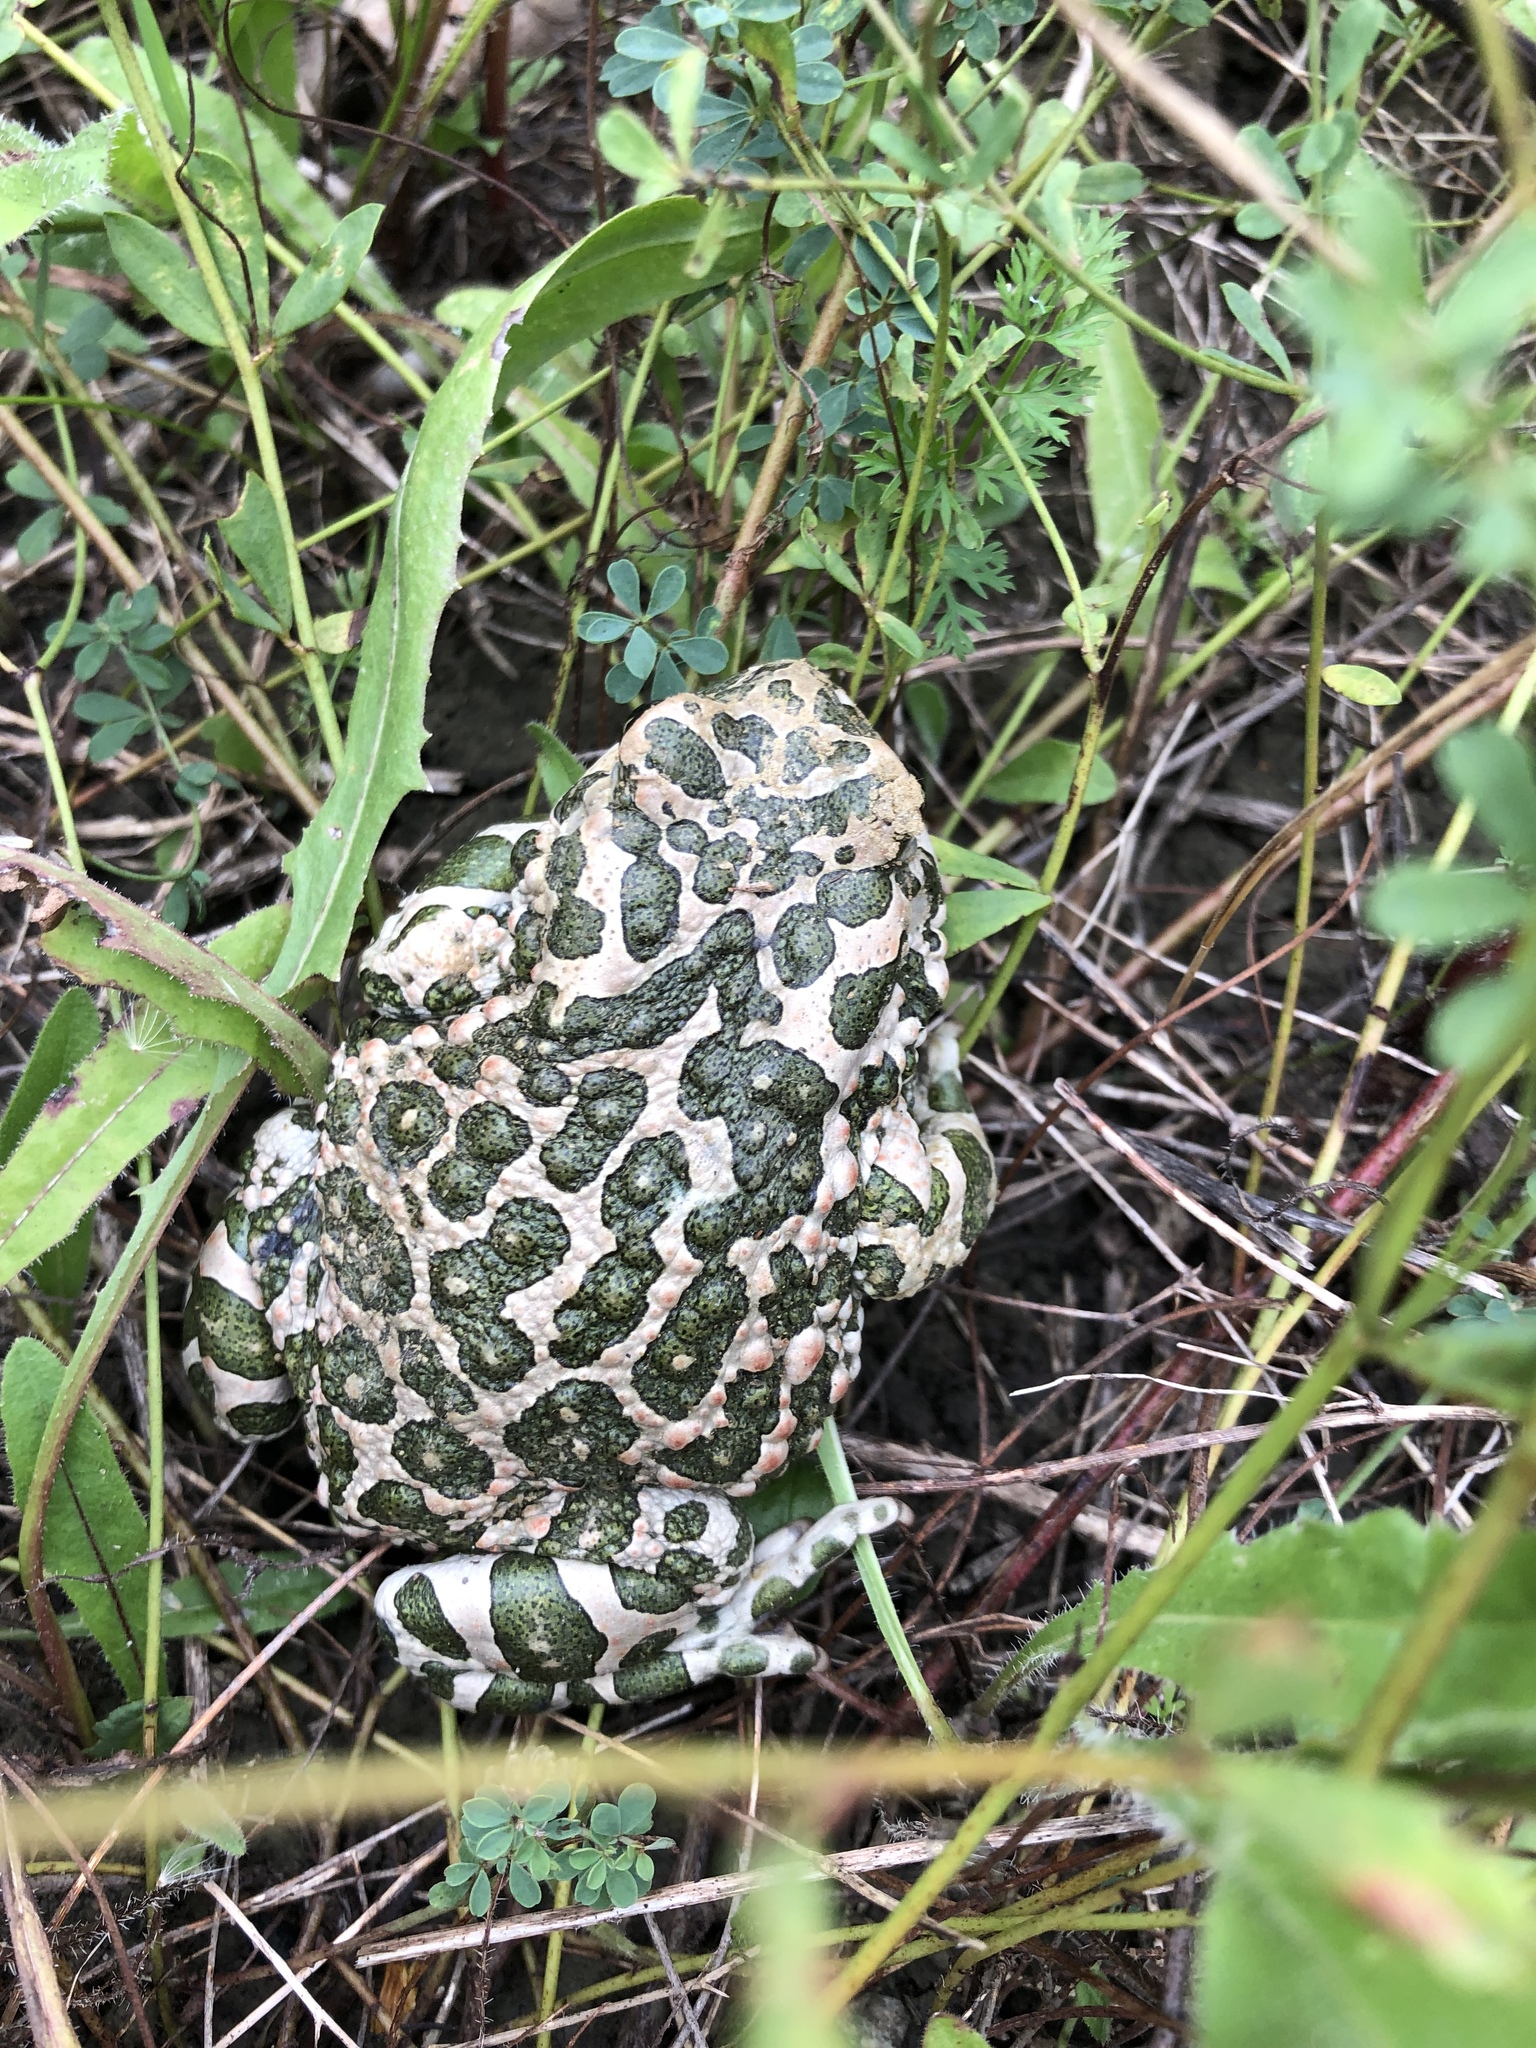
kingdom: Animalia
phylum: Chordata
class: Amphibia
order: Anura
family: Bufonidae
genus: Bufotes
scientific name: Bufotes viridis
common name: European green toad
